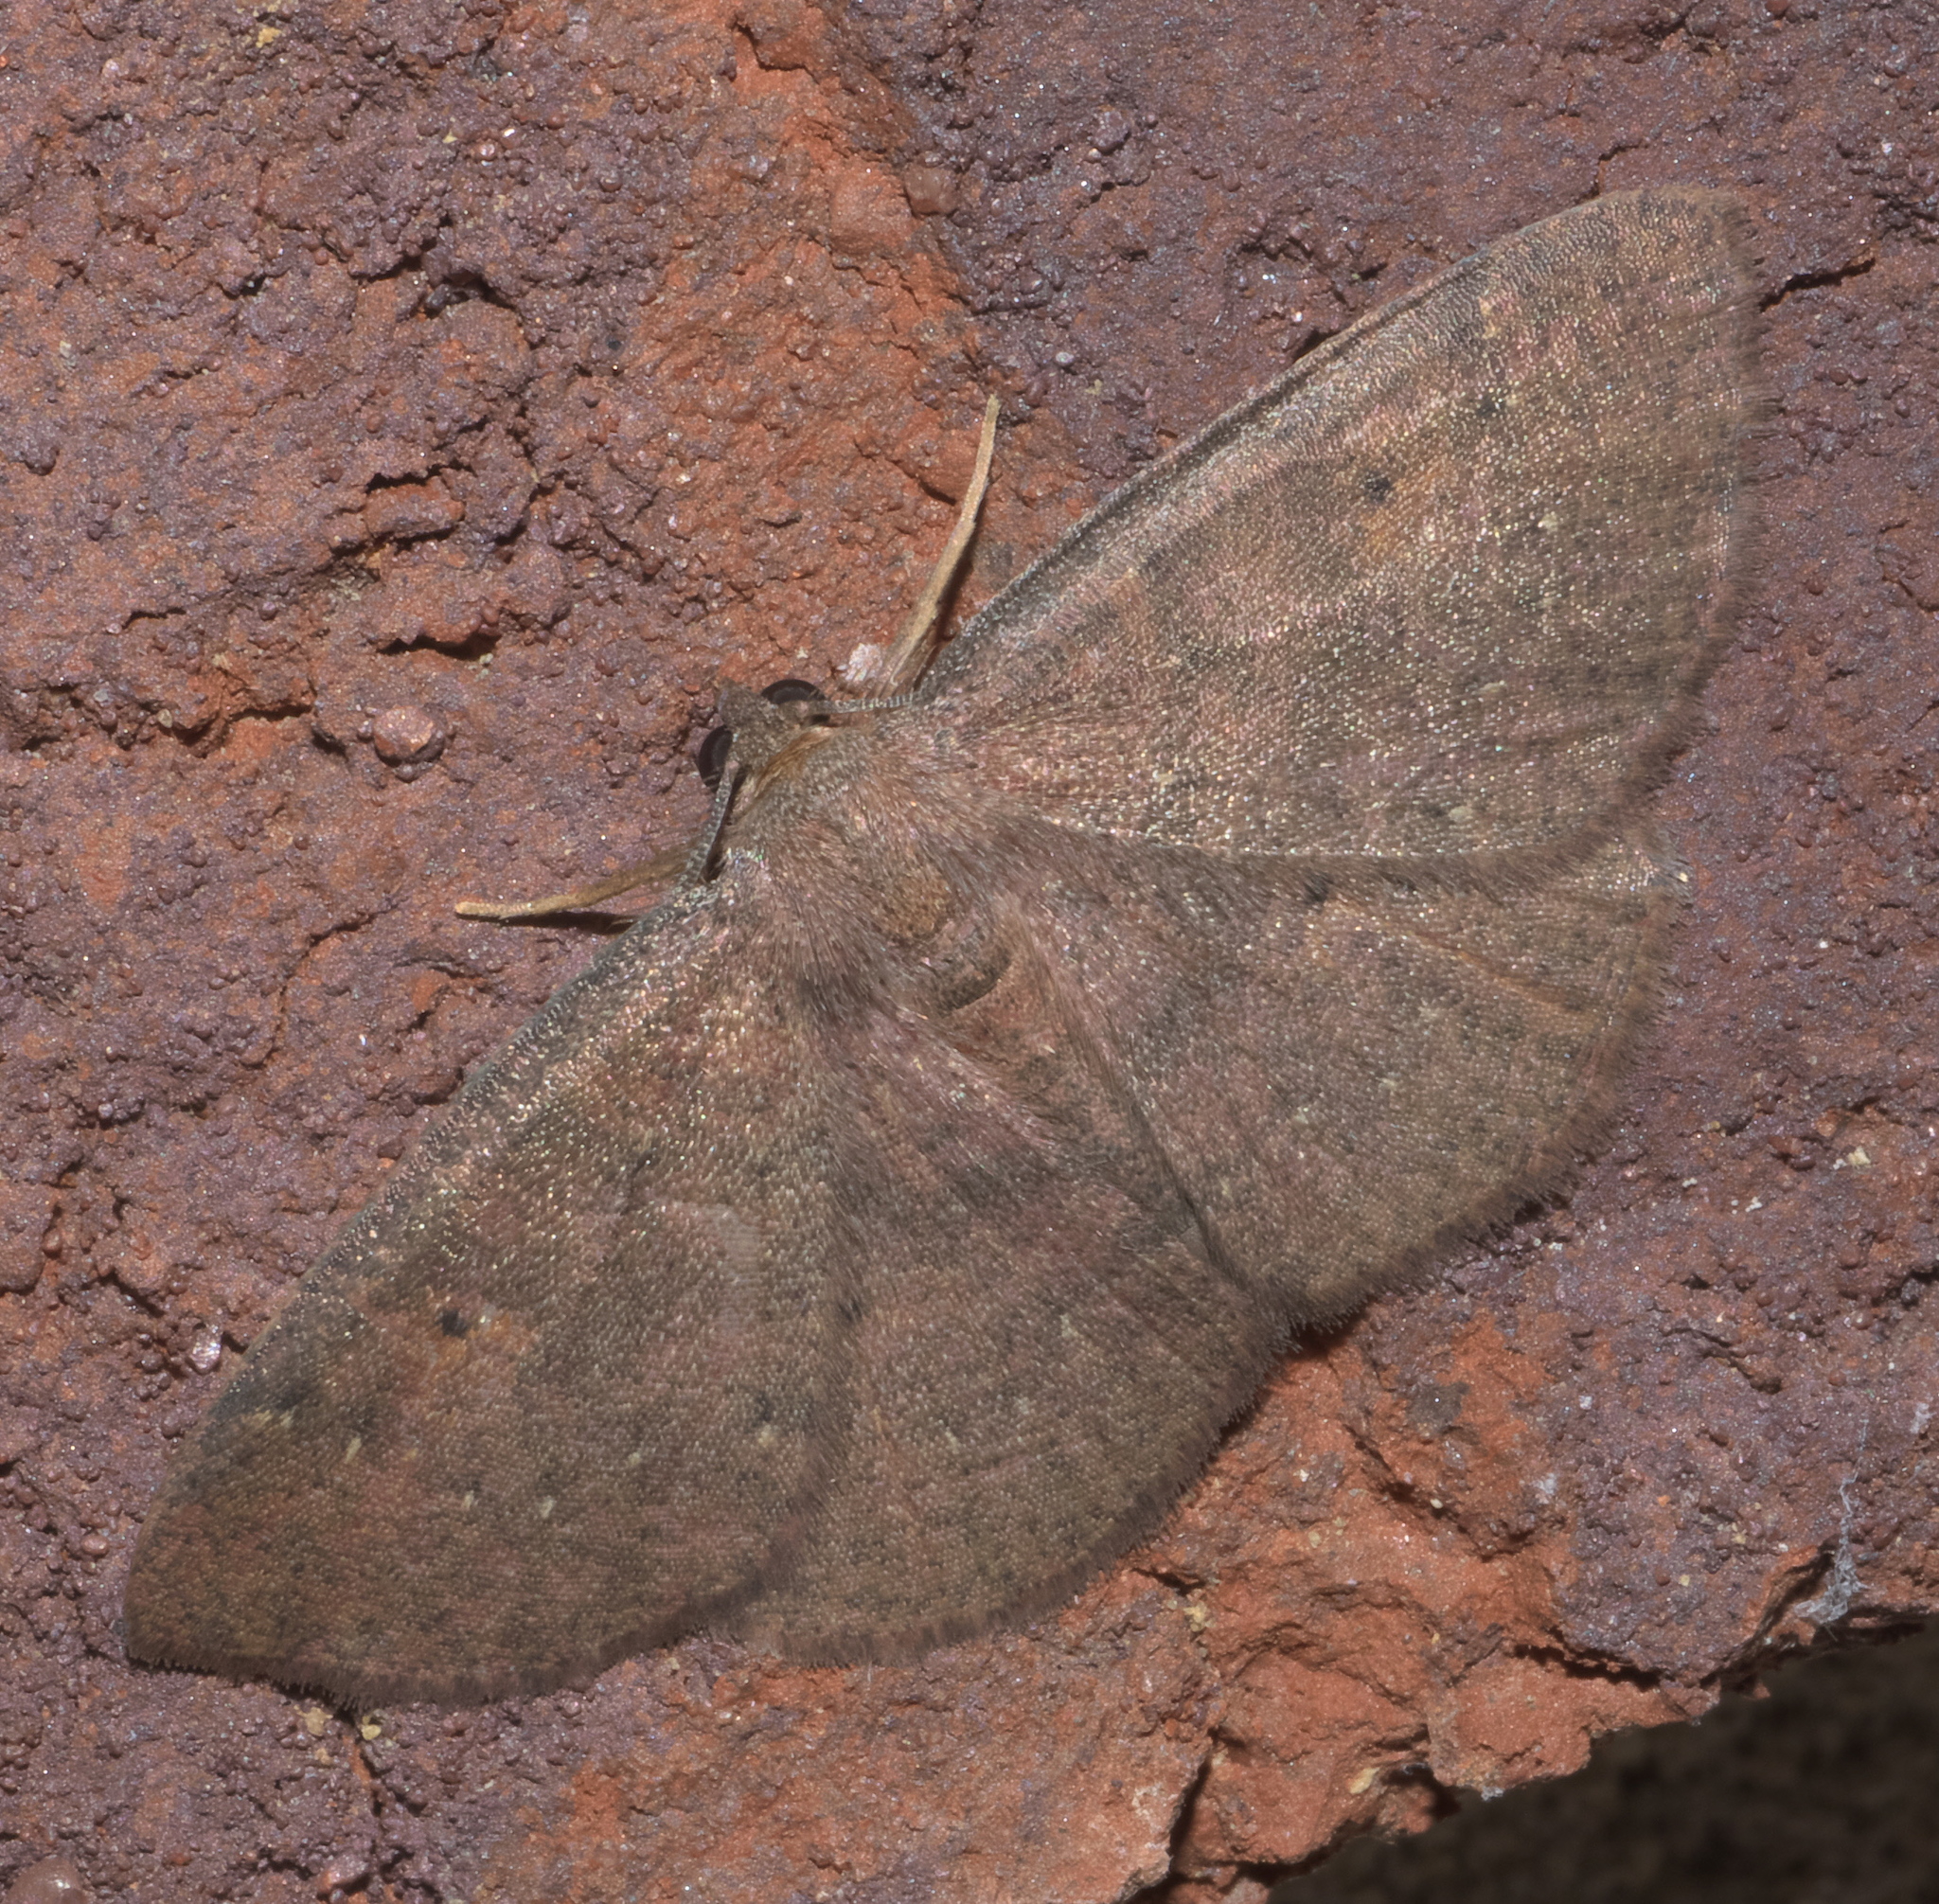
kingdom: Animalia
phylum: Arthropoda
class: Insecta
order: Lepidoptera
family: Geometridae
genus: Ilexia
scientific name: Ilexia intractata
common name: Black-dotted ruddy moth
